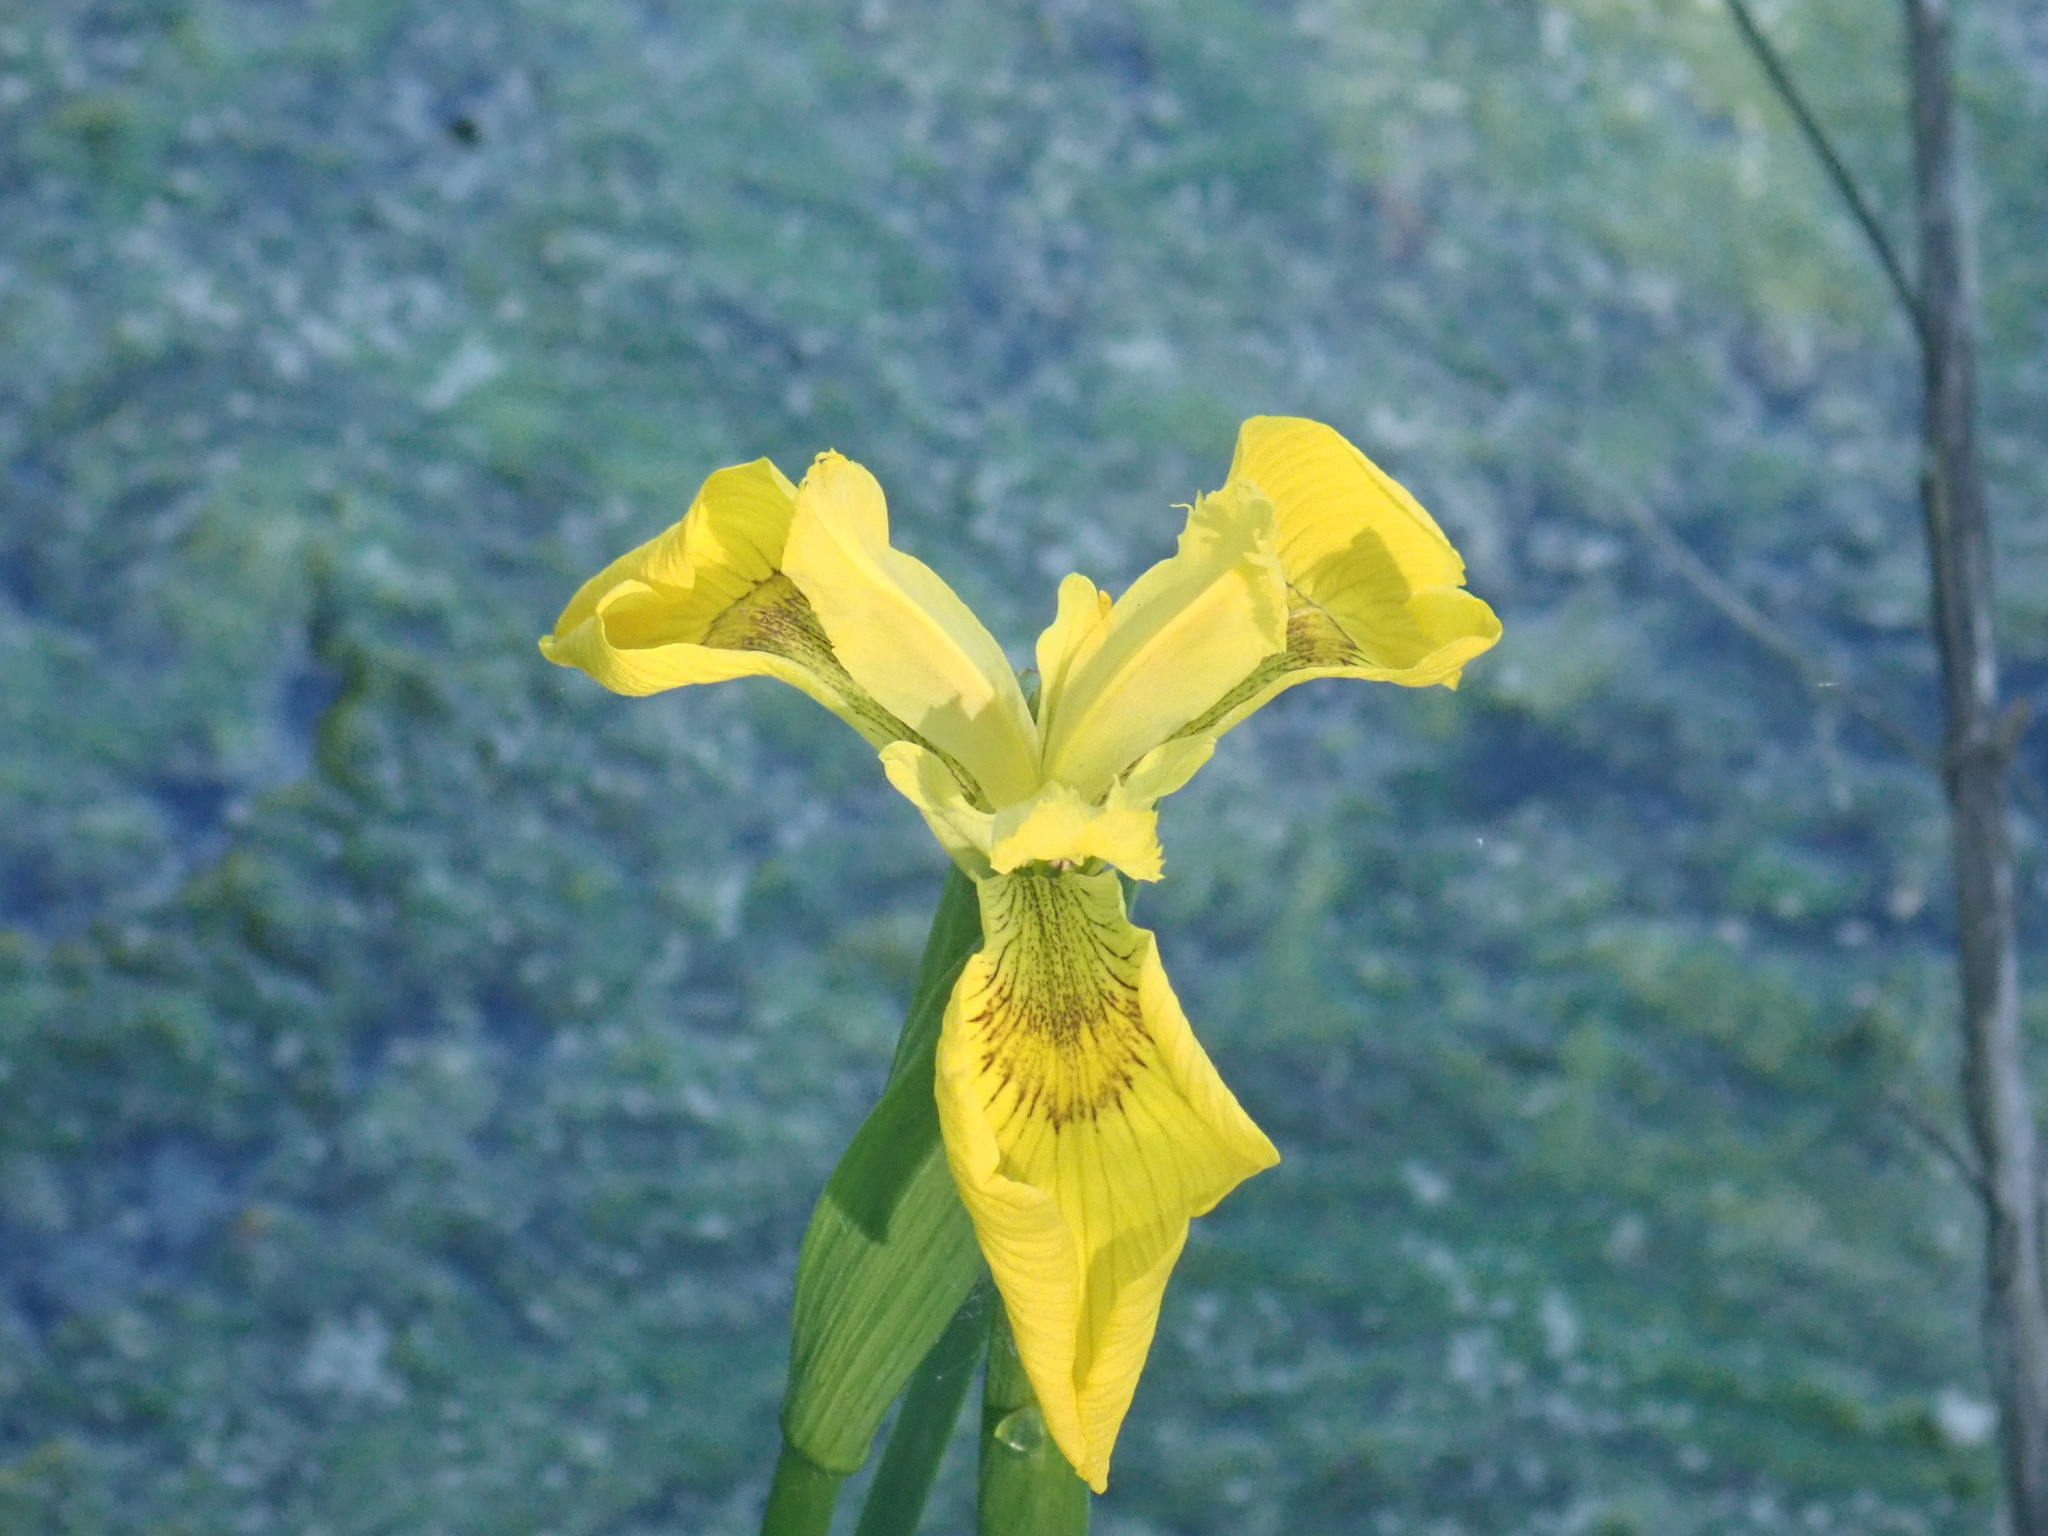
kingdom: Plantae
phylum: Tracheophyta
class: Liliopsida
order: Asparagales
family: Iridaceae
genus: Iris
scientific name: Iris pseudacorus
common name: Yellow flag
